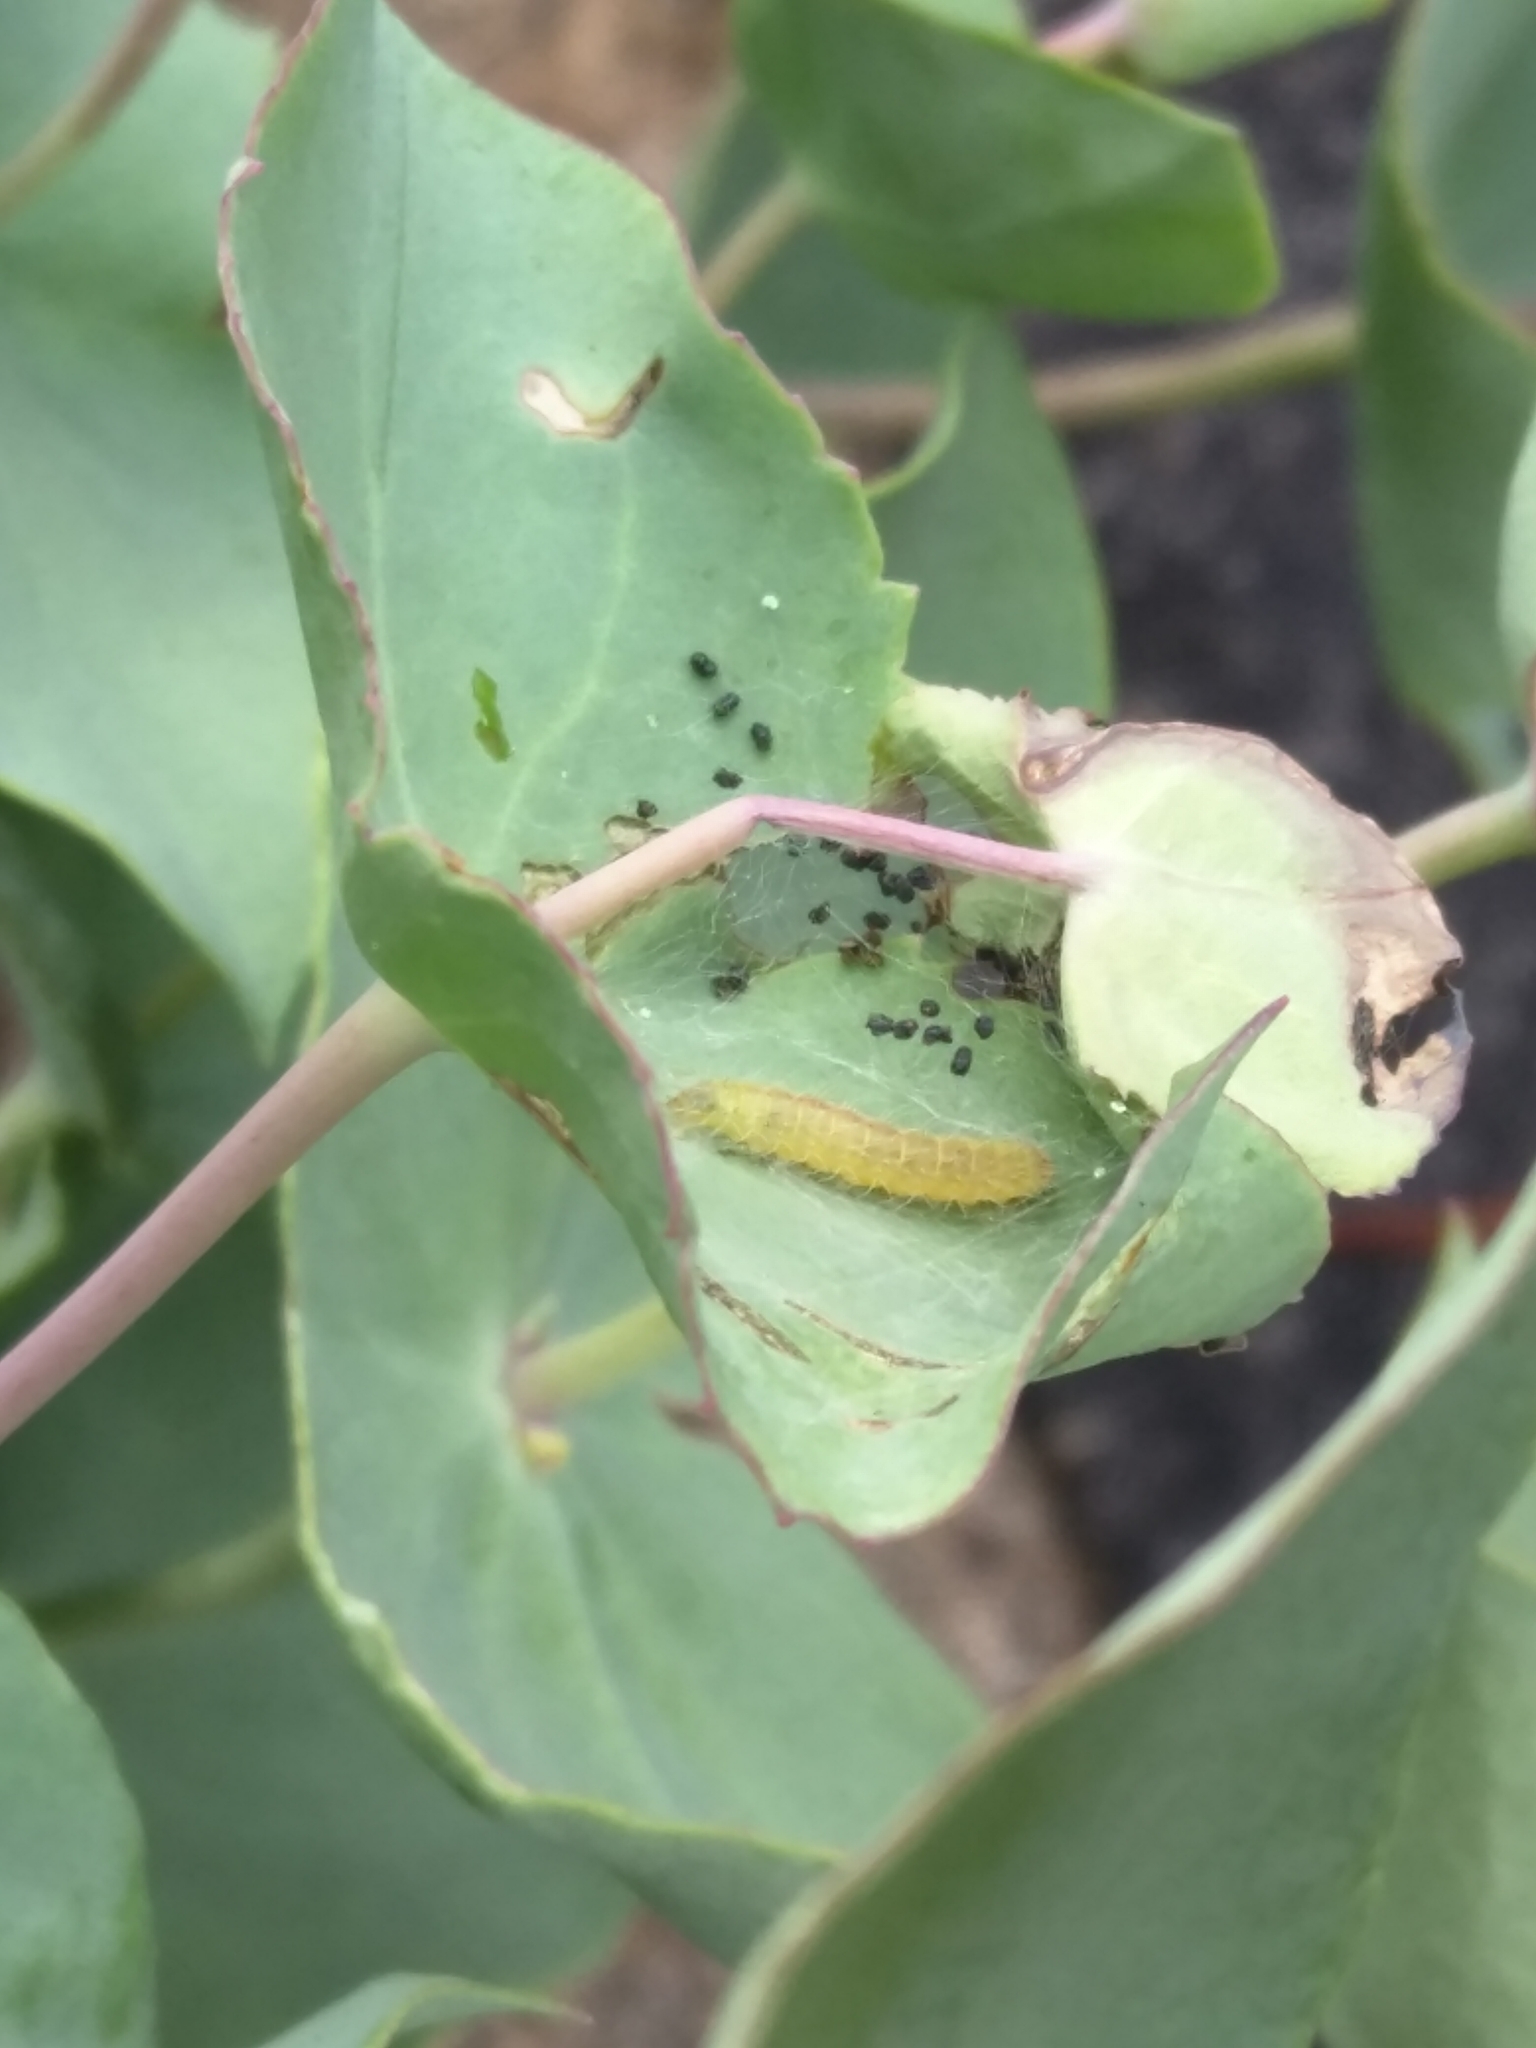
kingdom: Animalia
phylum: Arthropoda
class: Insecta
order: Lepidoptera
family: Pterophoridae
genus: Sinpunctiptilia
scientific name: Sinpunctiptilia emissalis
